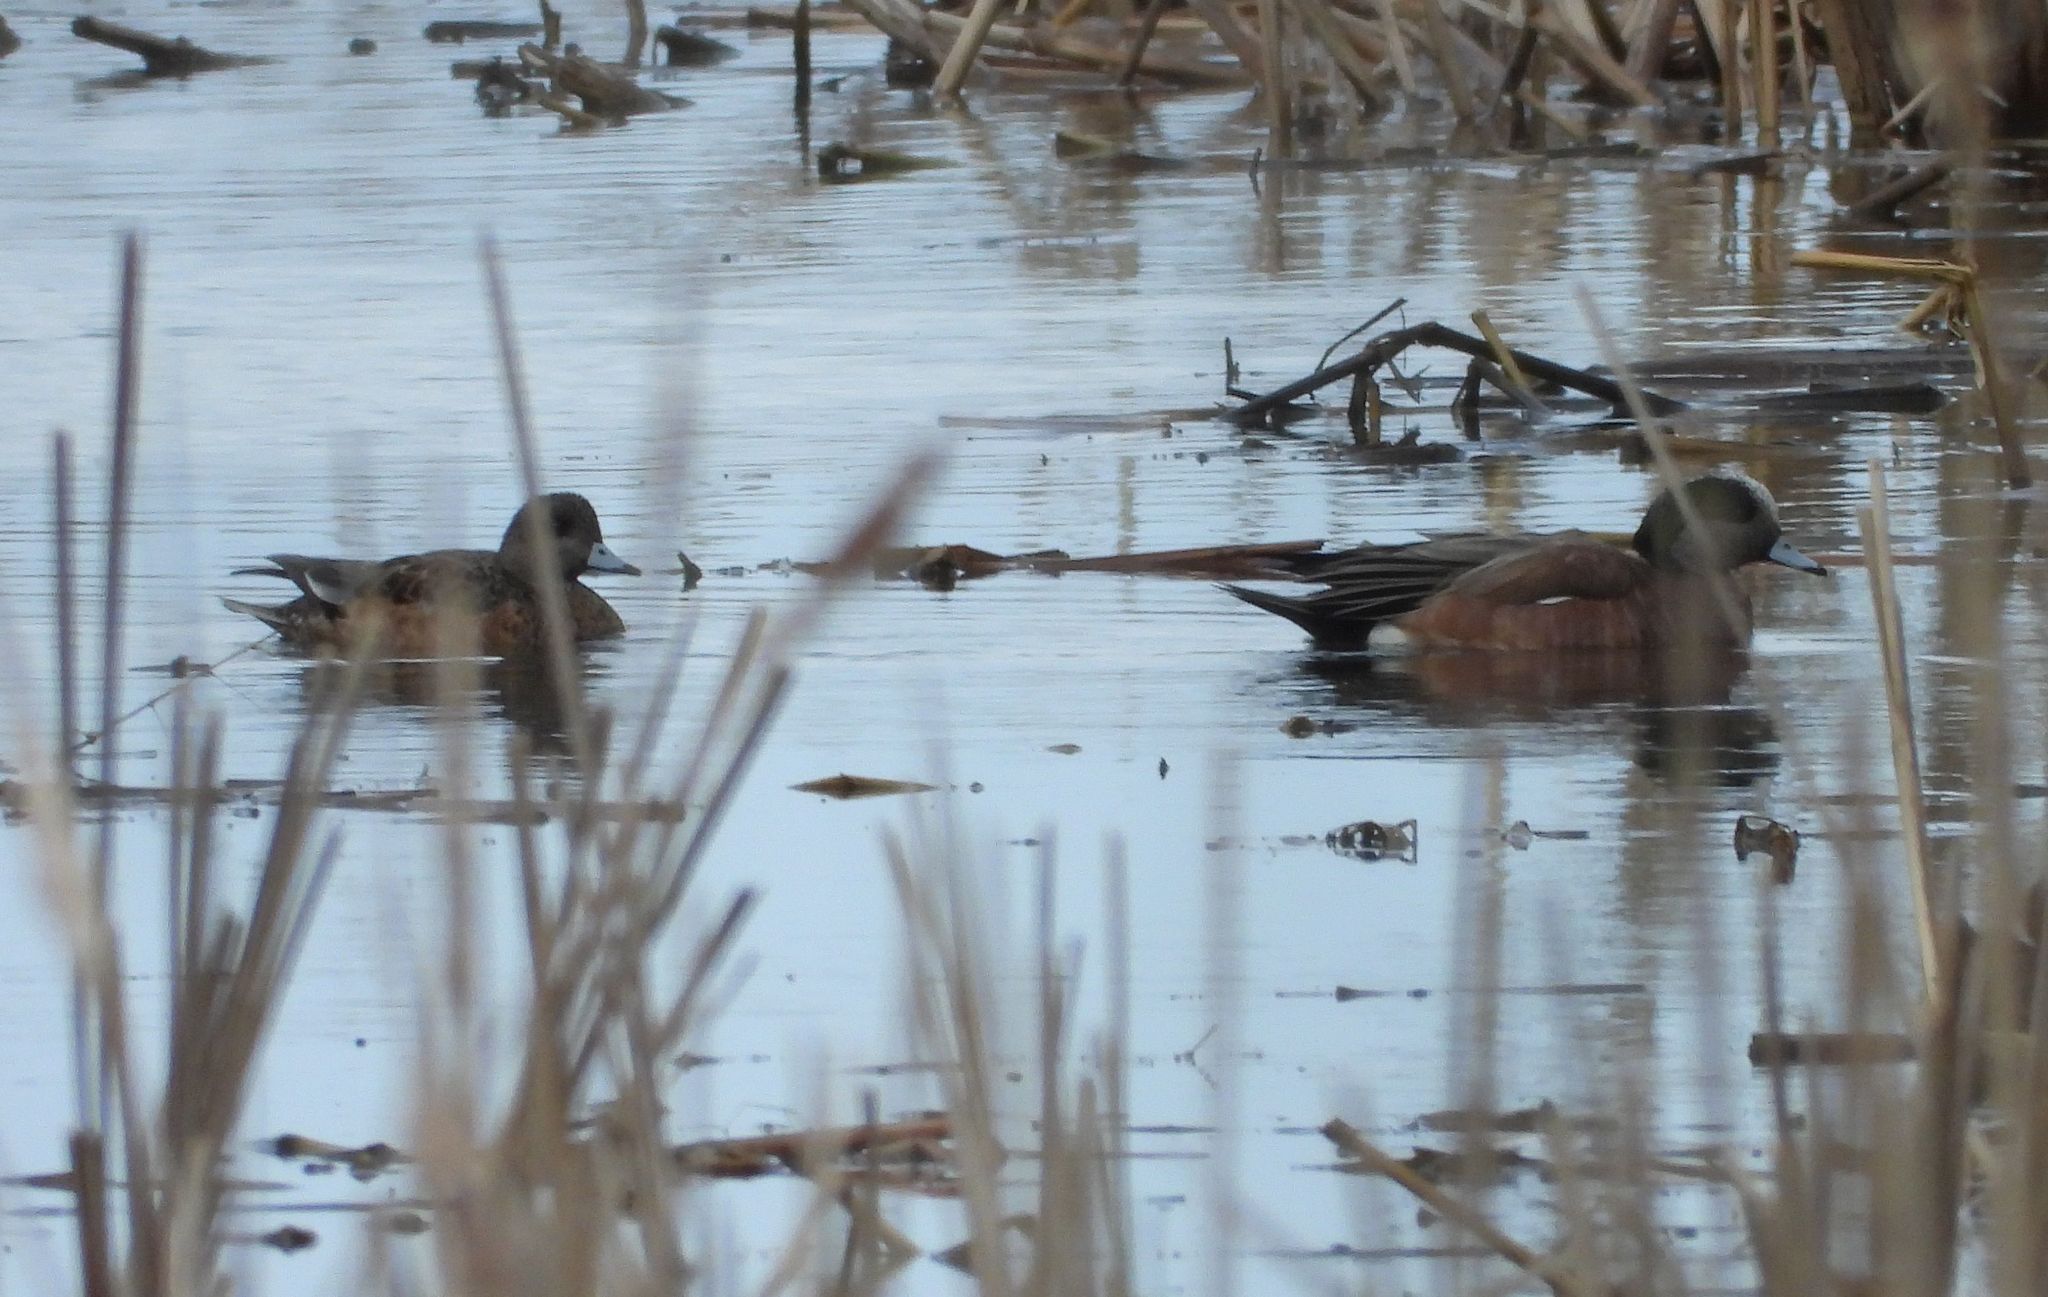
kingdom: Animalia
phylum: Chordata
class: Aves
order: Anseriformes
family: Anatidae
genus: Mareca
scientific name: Mareca americana
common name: American wigeon
